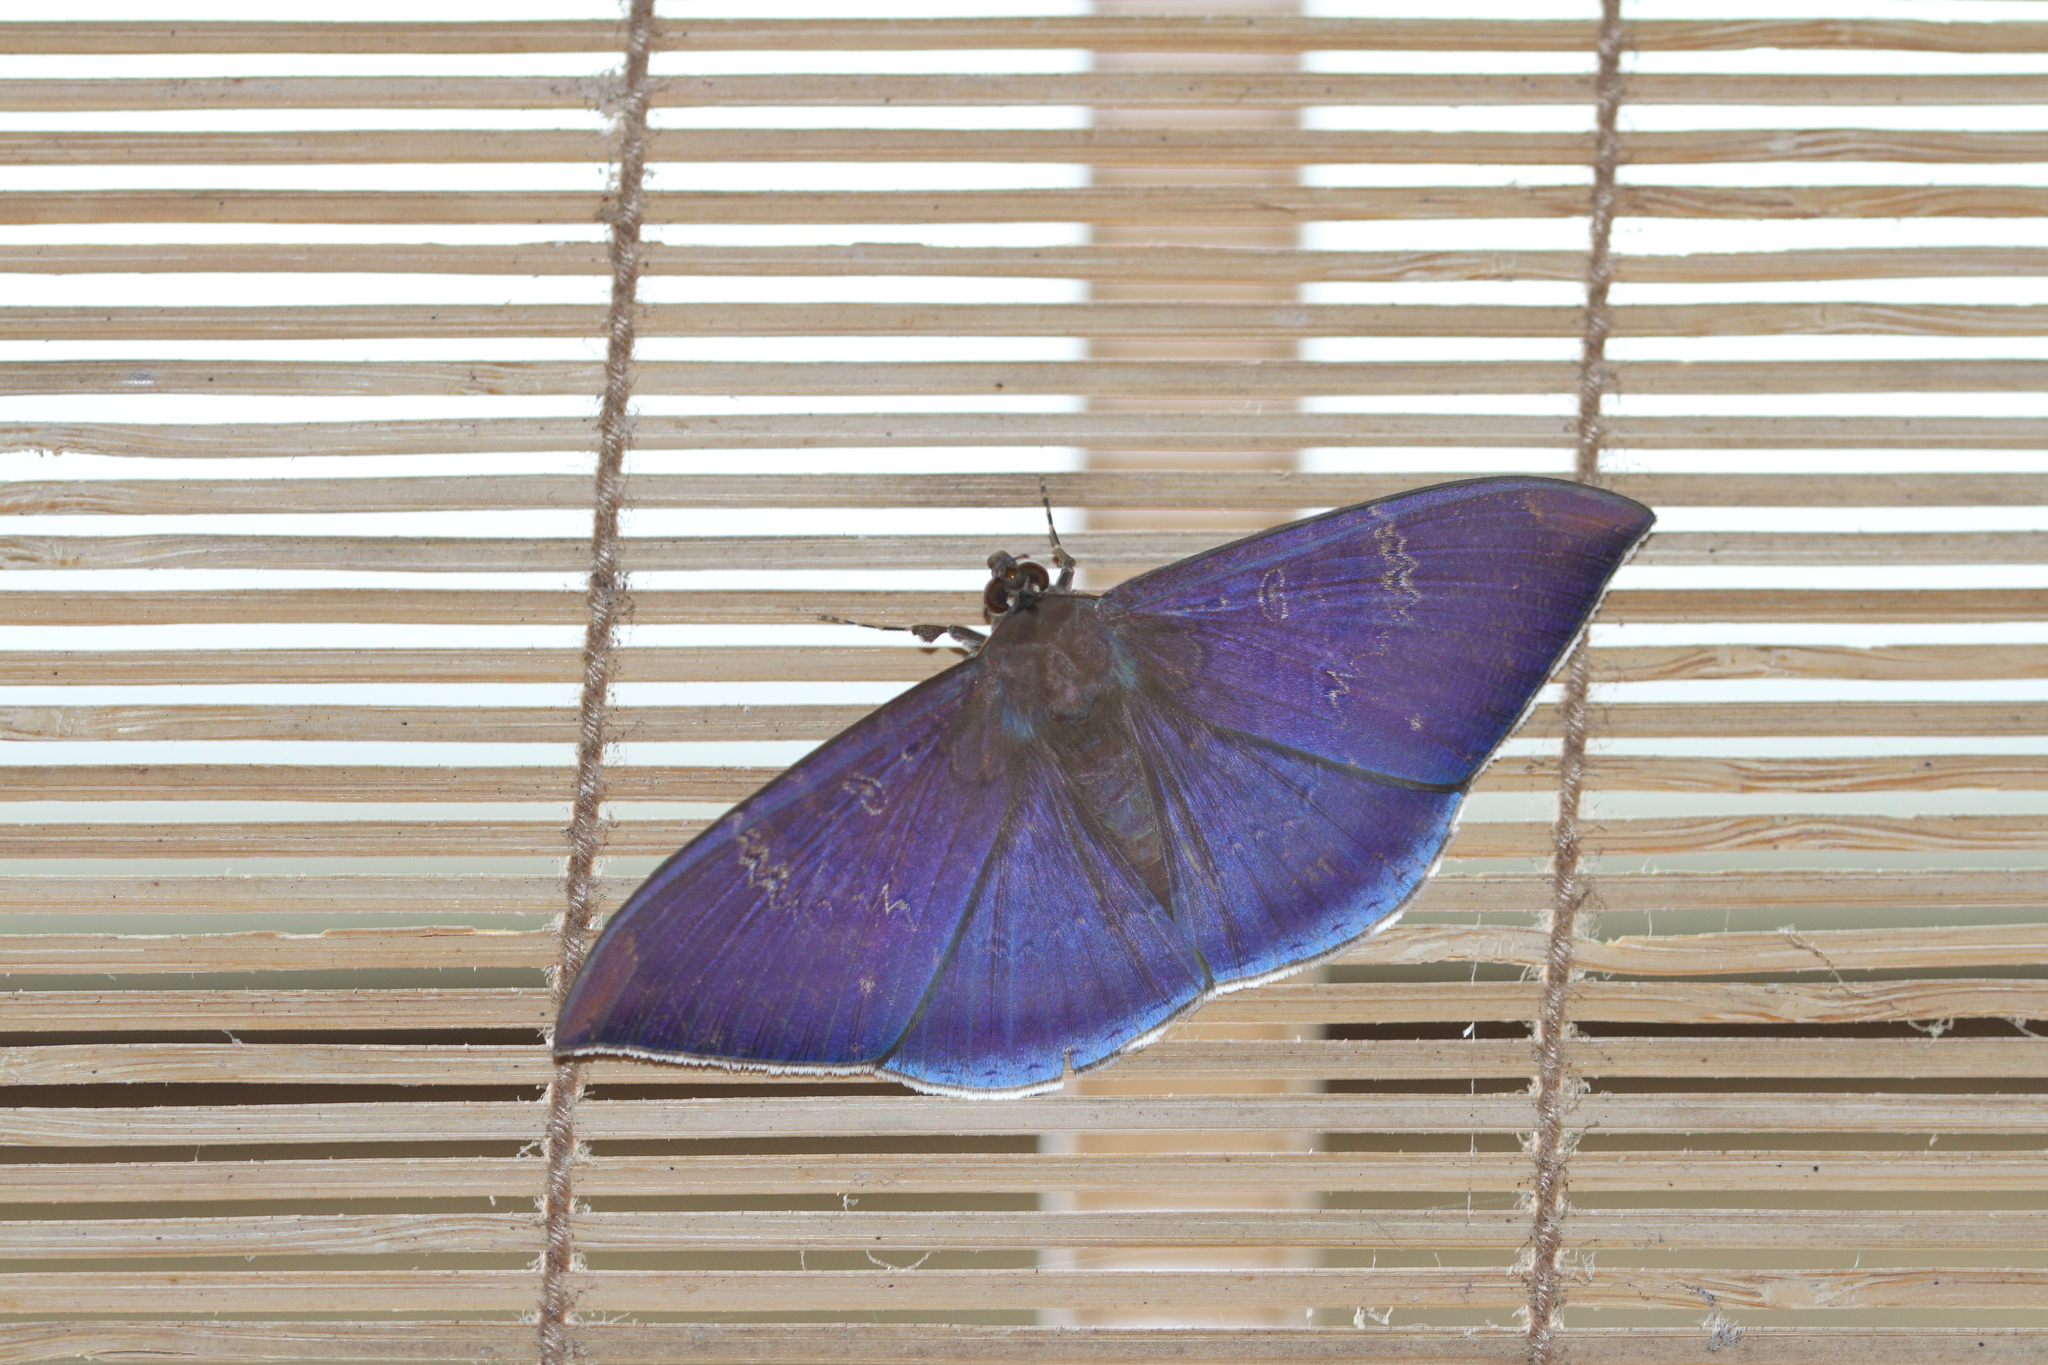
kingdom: Animalia
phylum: Arthropoda
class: Insecta
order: Lepidoptera
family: Erebidae
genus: Hemeroblemma
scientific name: Hemeroblemma dolosina
